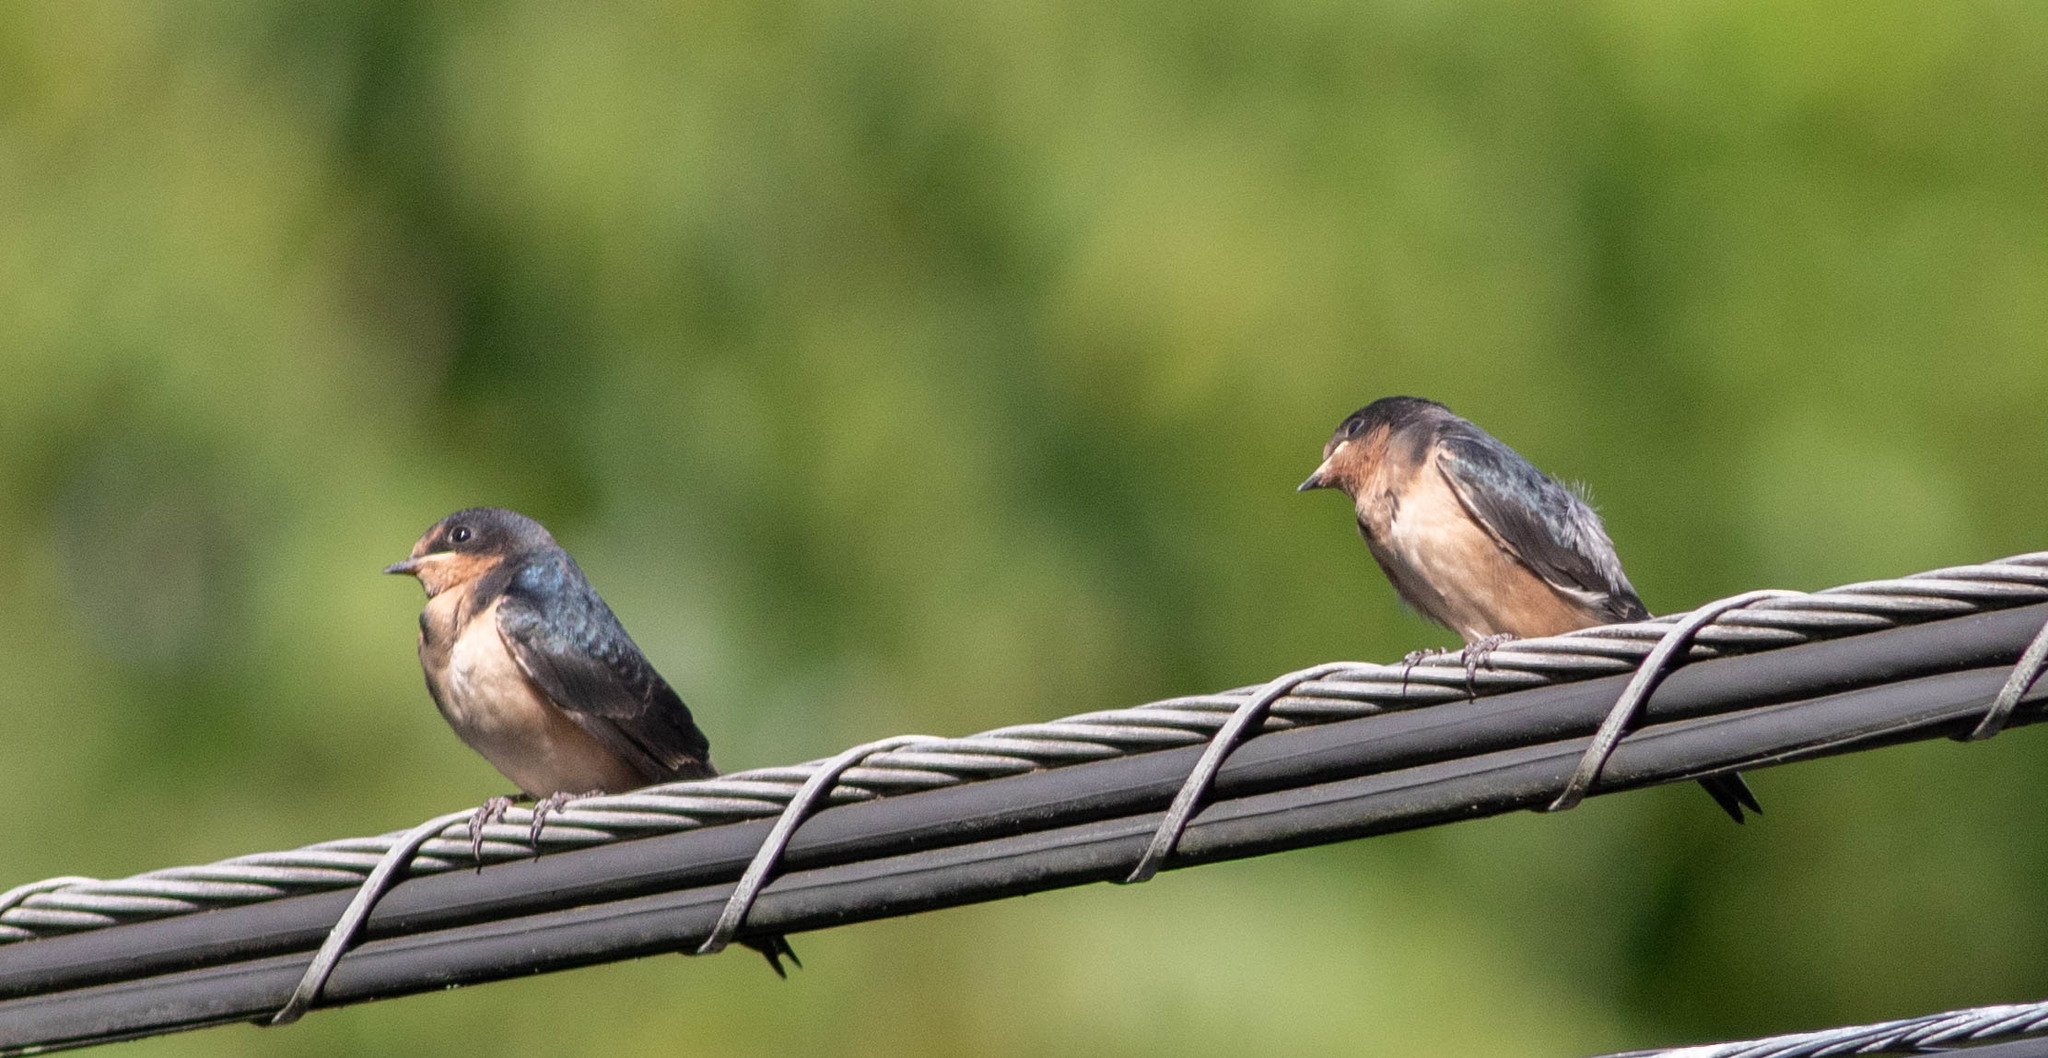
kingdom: Animalia
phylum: Chordata
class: Aves
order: Passeriformes
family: Hirundinidae
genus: Hirundo
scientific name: Hirundo rustica
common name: Barn swallow
